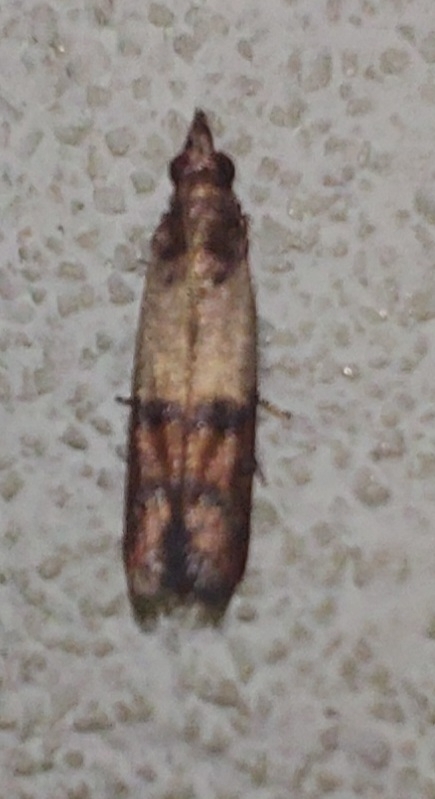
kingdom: Animalia
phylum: Arthropoda
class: Insecta
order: Lepidoptera
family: Pyralidae
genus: Plodia
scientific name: Plodia interpunctella
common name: Indian meal moth
